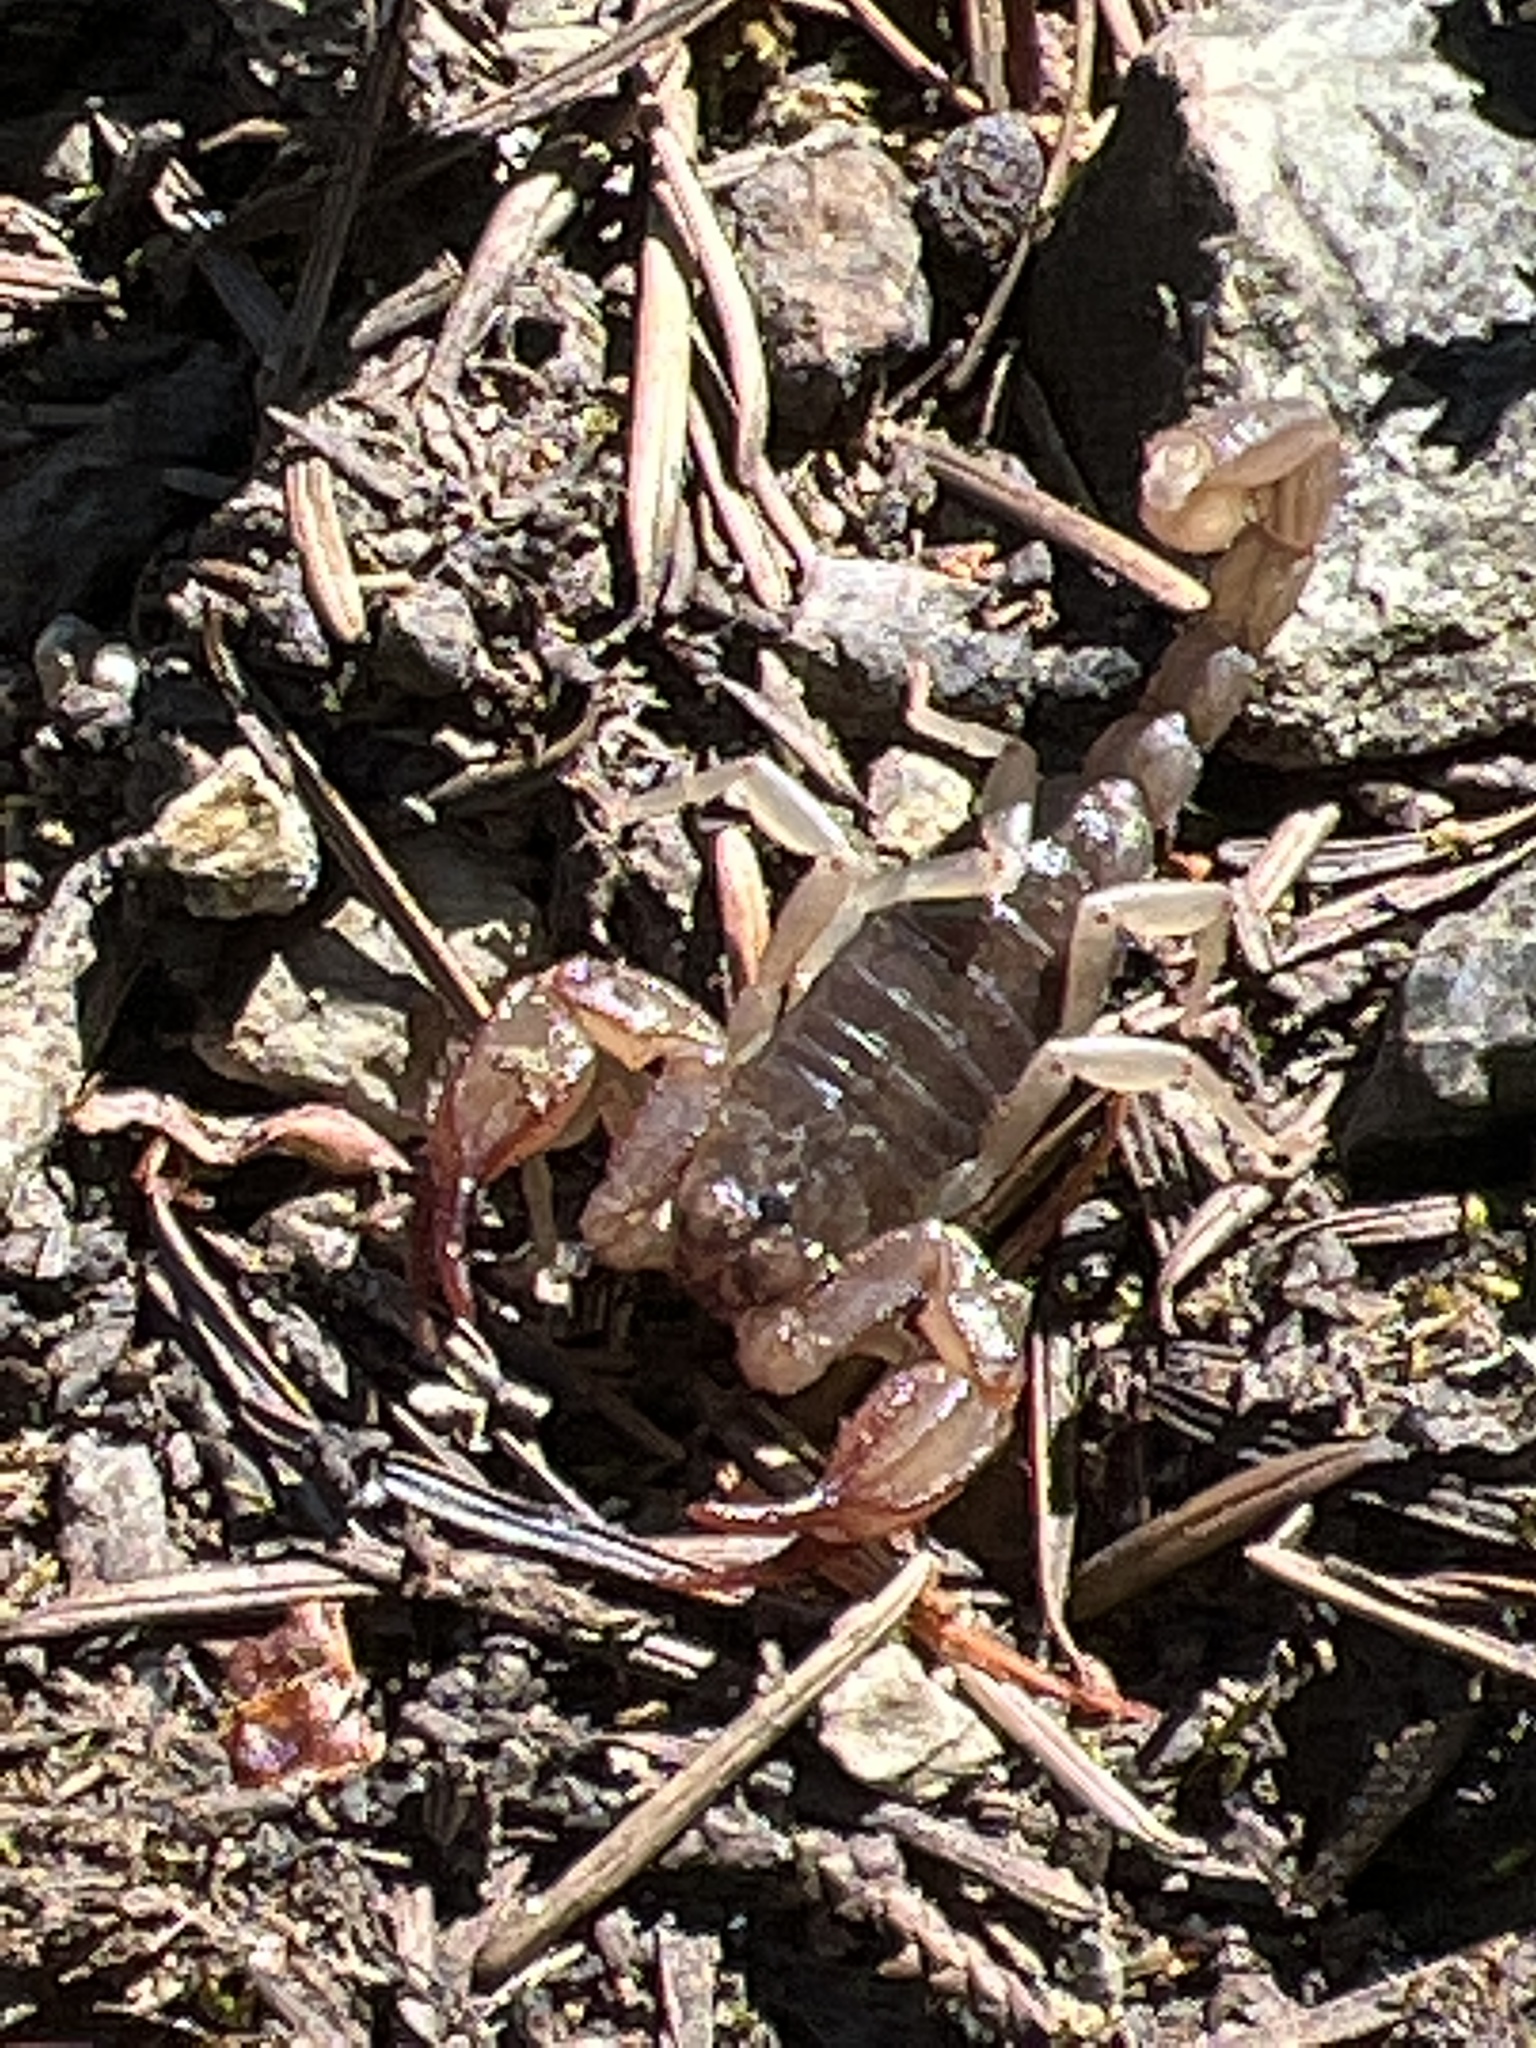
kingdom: Animalia
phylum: Arthropoda
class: Arachnida
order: Scorpiones
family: Chactidae
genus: Uroctonus
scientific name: Uroctonus mordax
